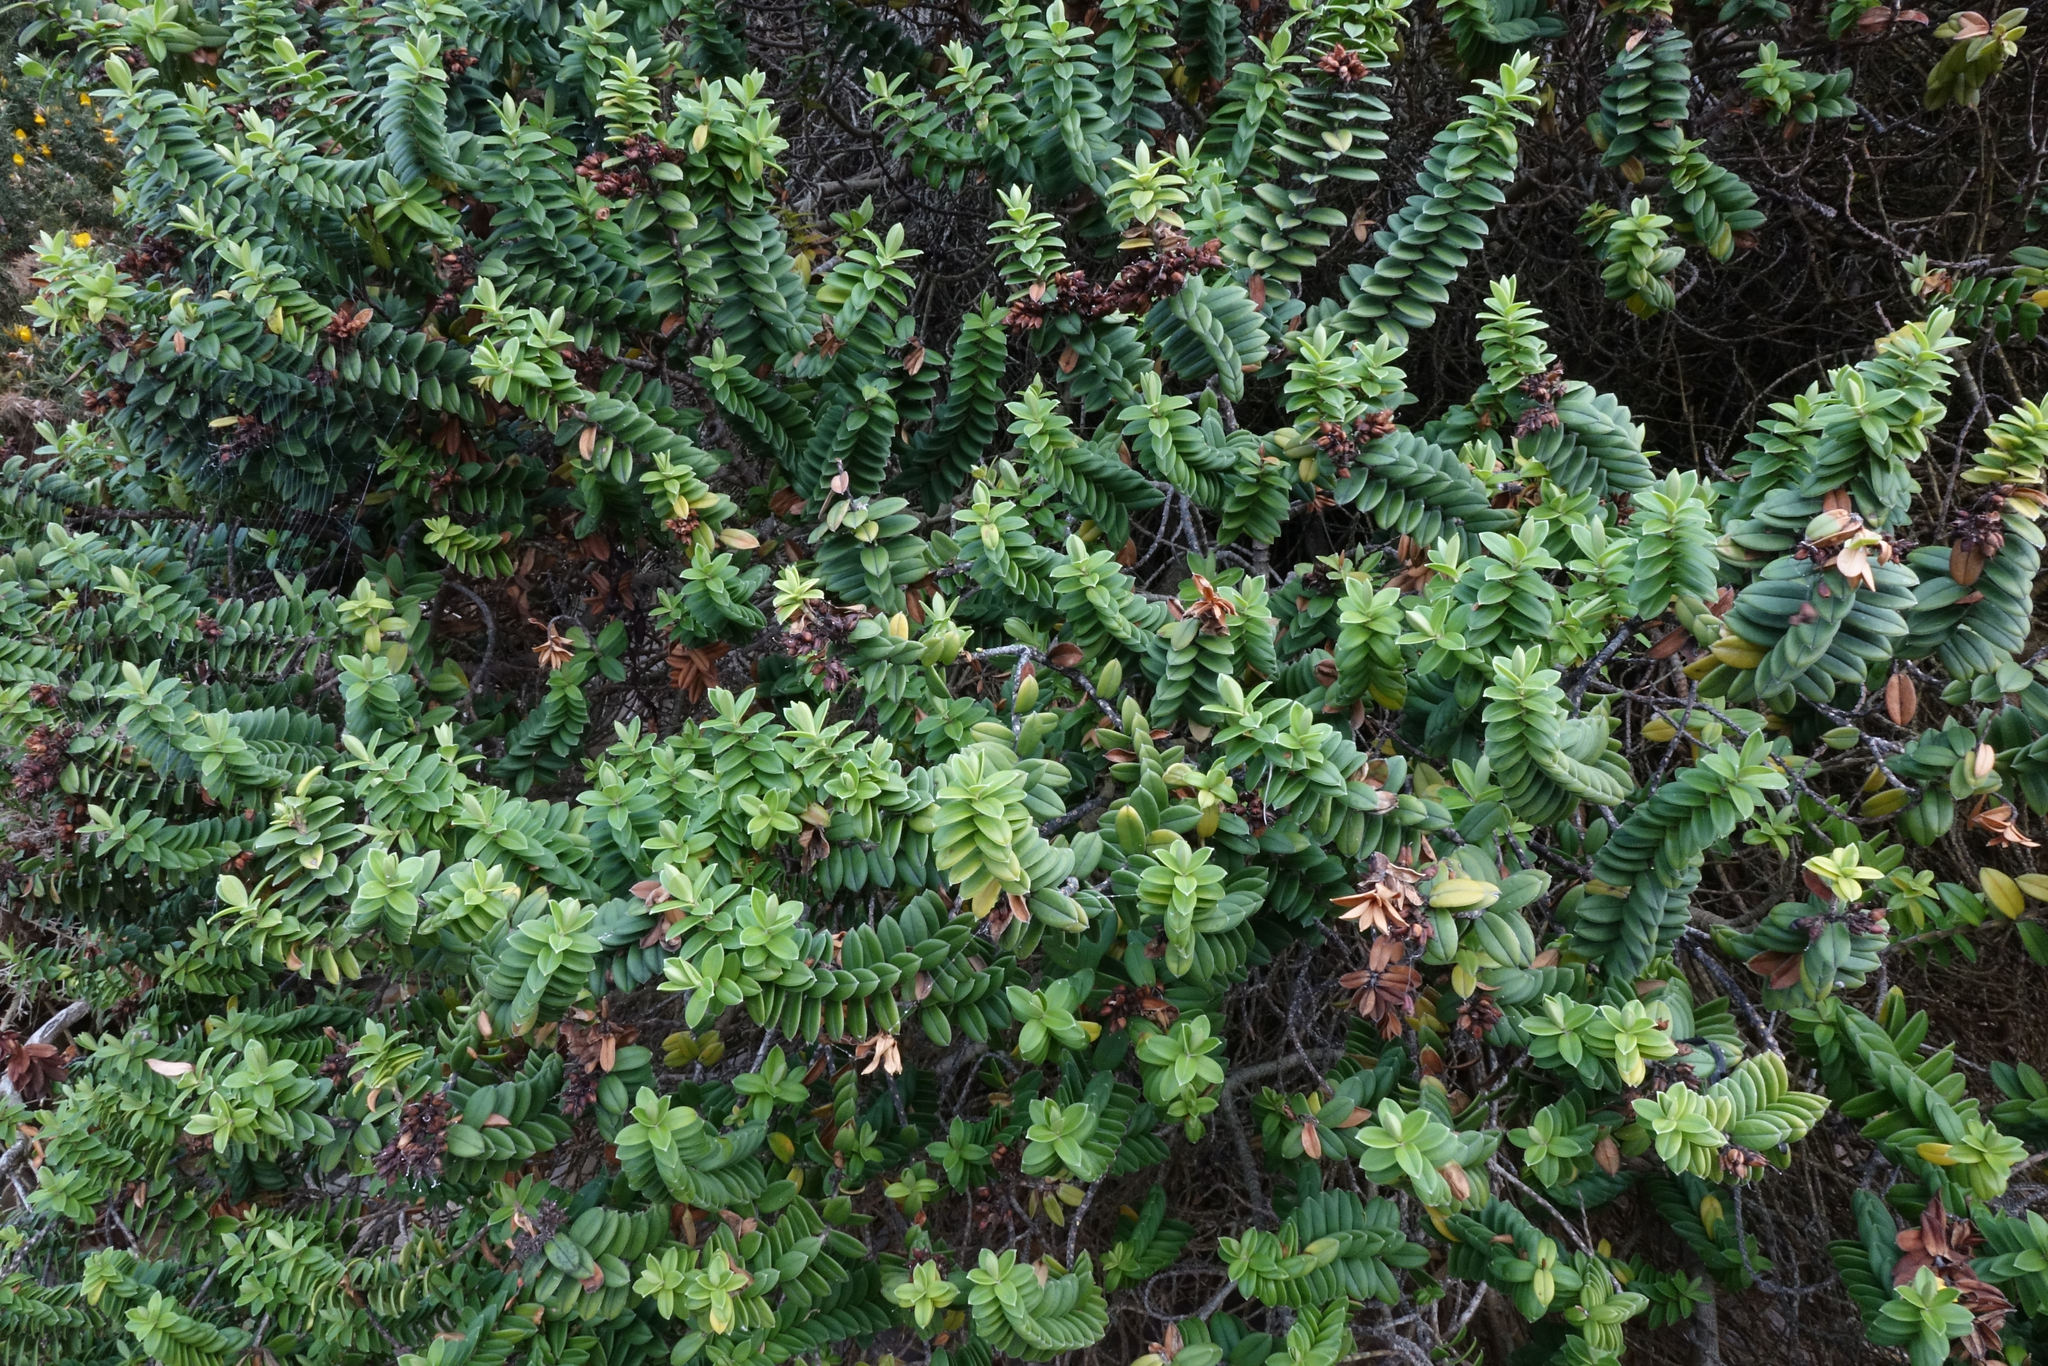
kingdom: Plantae
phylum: Tracheophyta
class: Magnoliopsida
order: Lamiales
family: Plantaginaceae
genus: Veronica
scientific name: Veronica elliptica
